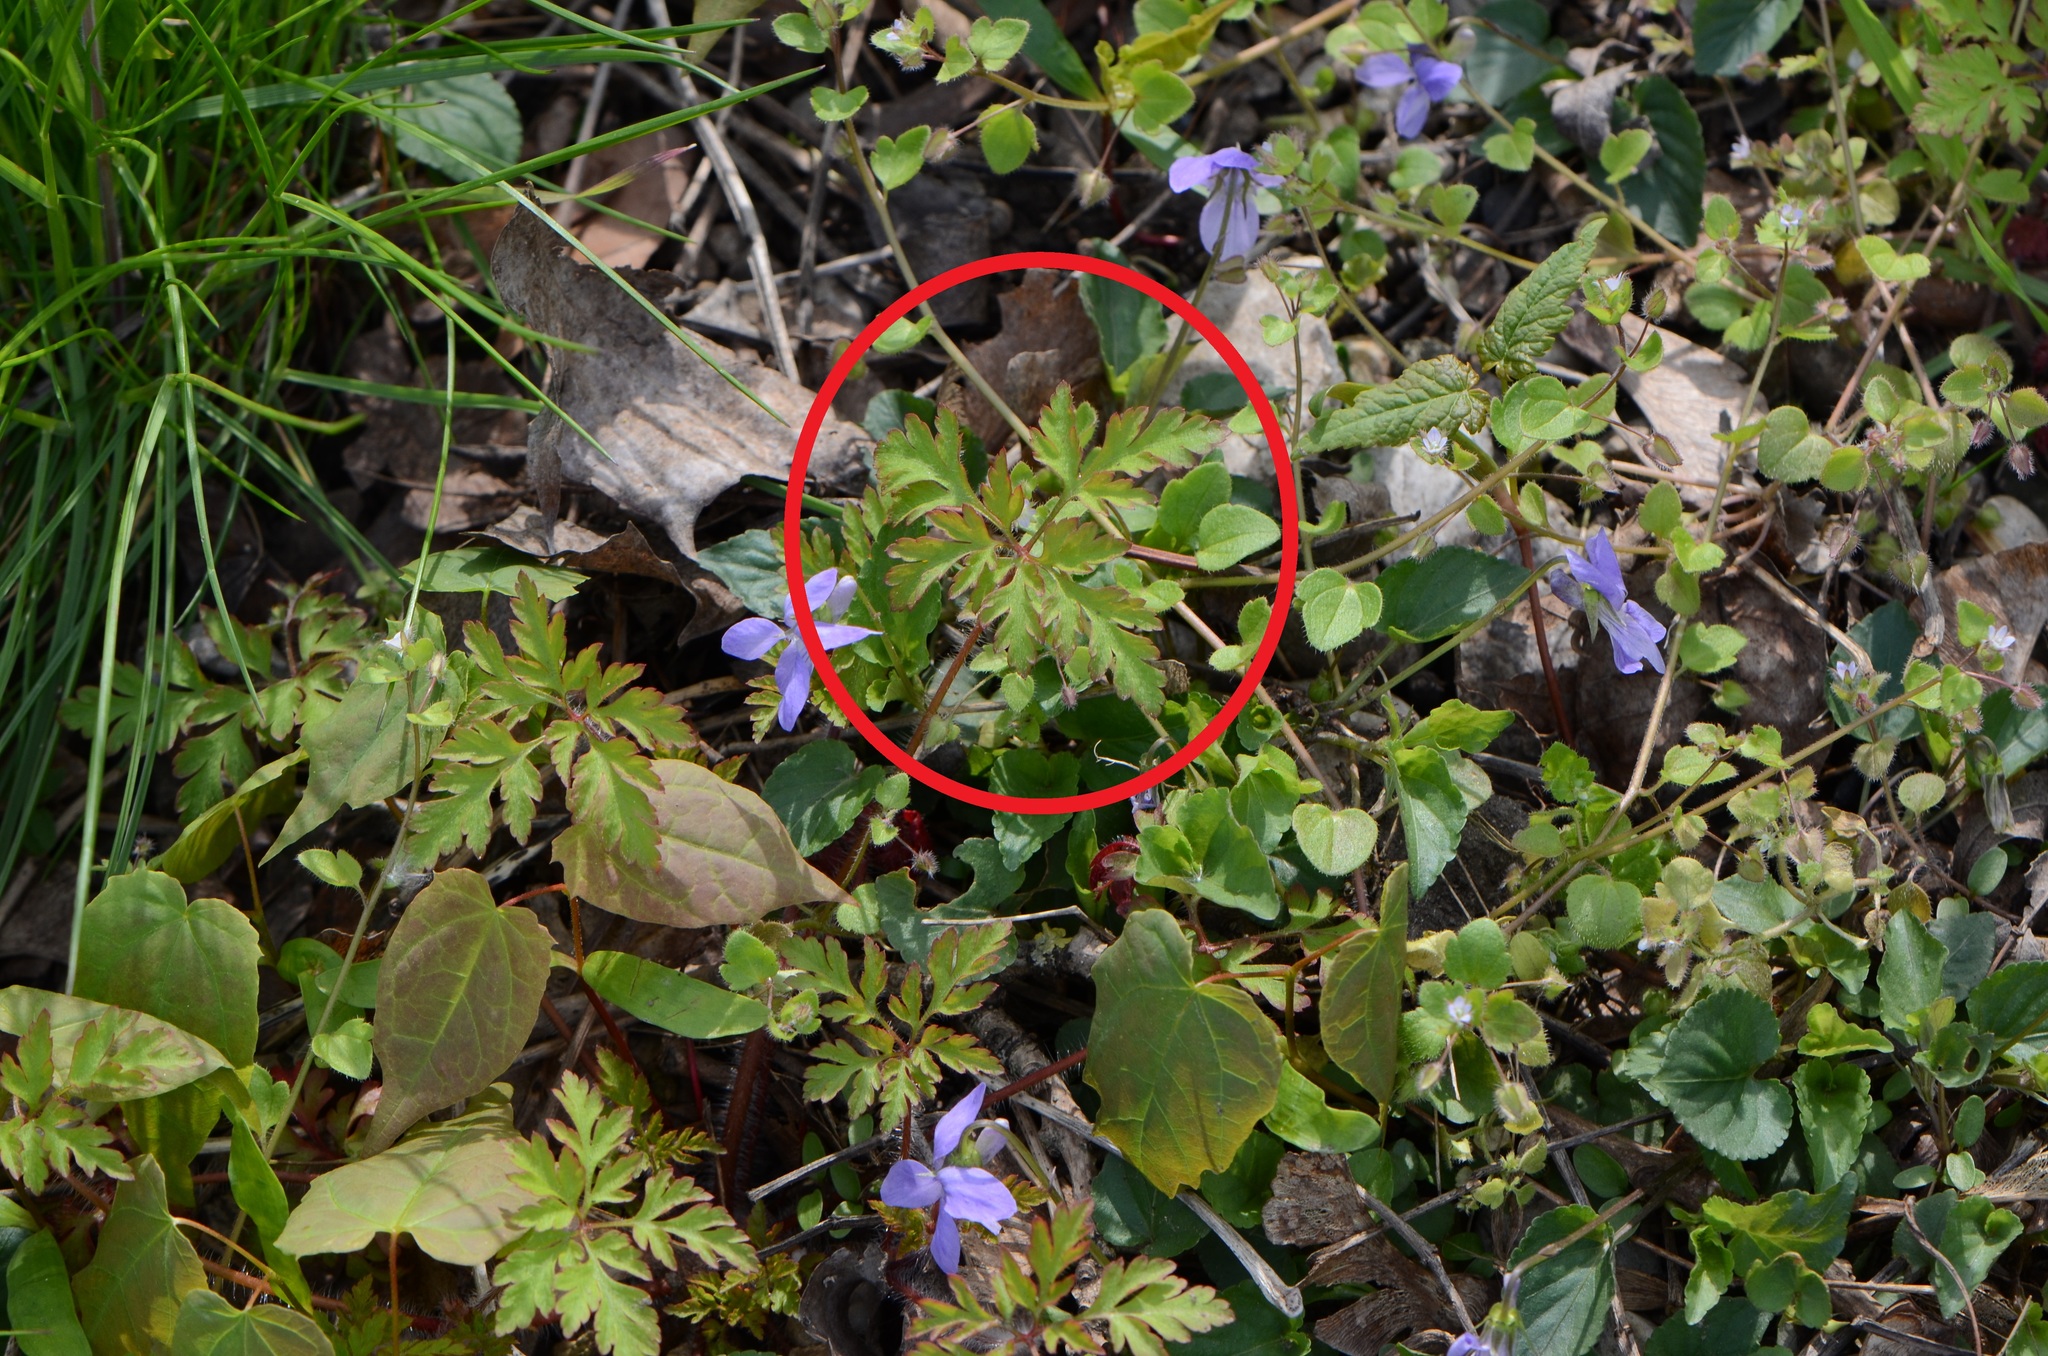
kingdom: Plantae
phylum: Tracheophyta
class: Magnoliopsida
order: Geraniales
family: Geraniaceae
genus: Geranium
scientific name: Geranium robertianum
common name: Herb-robert
